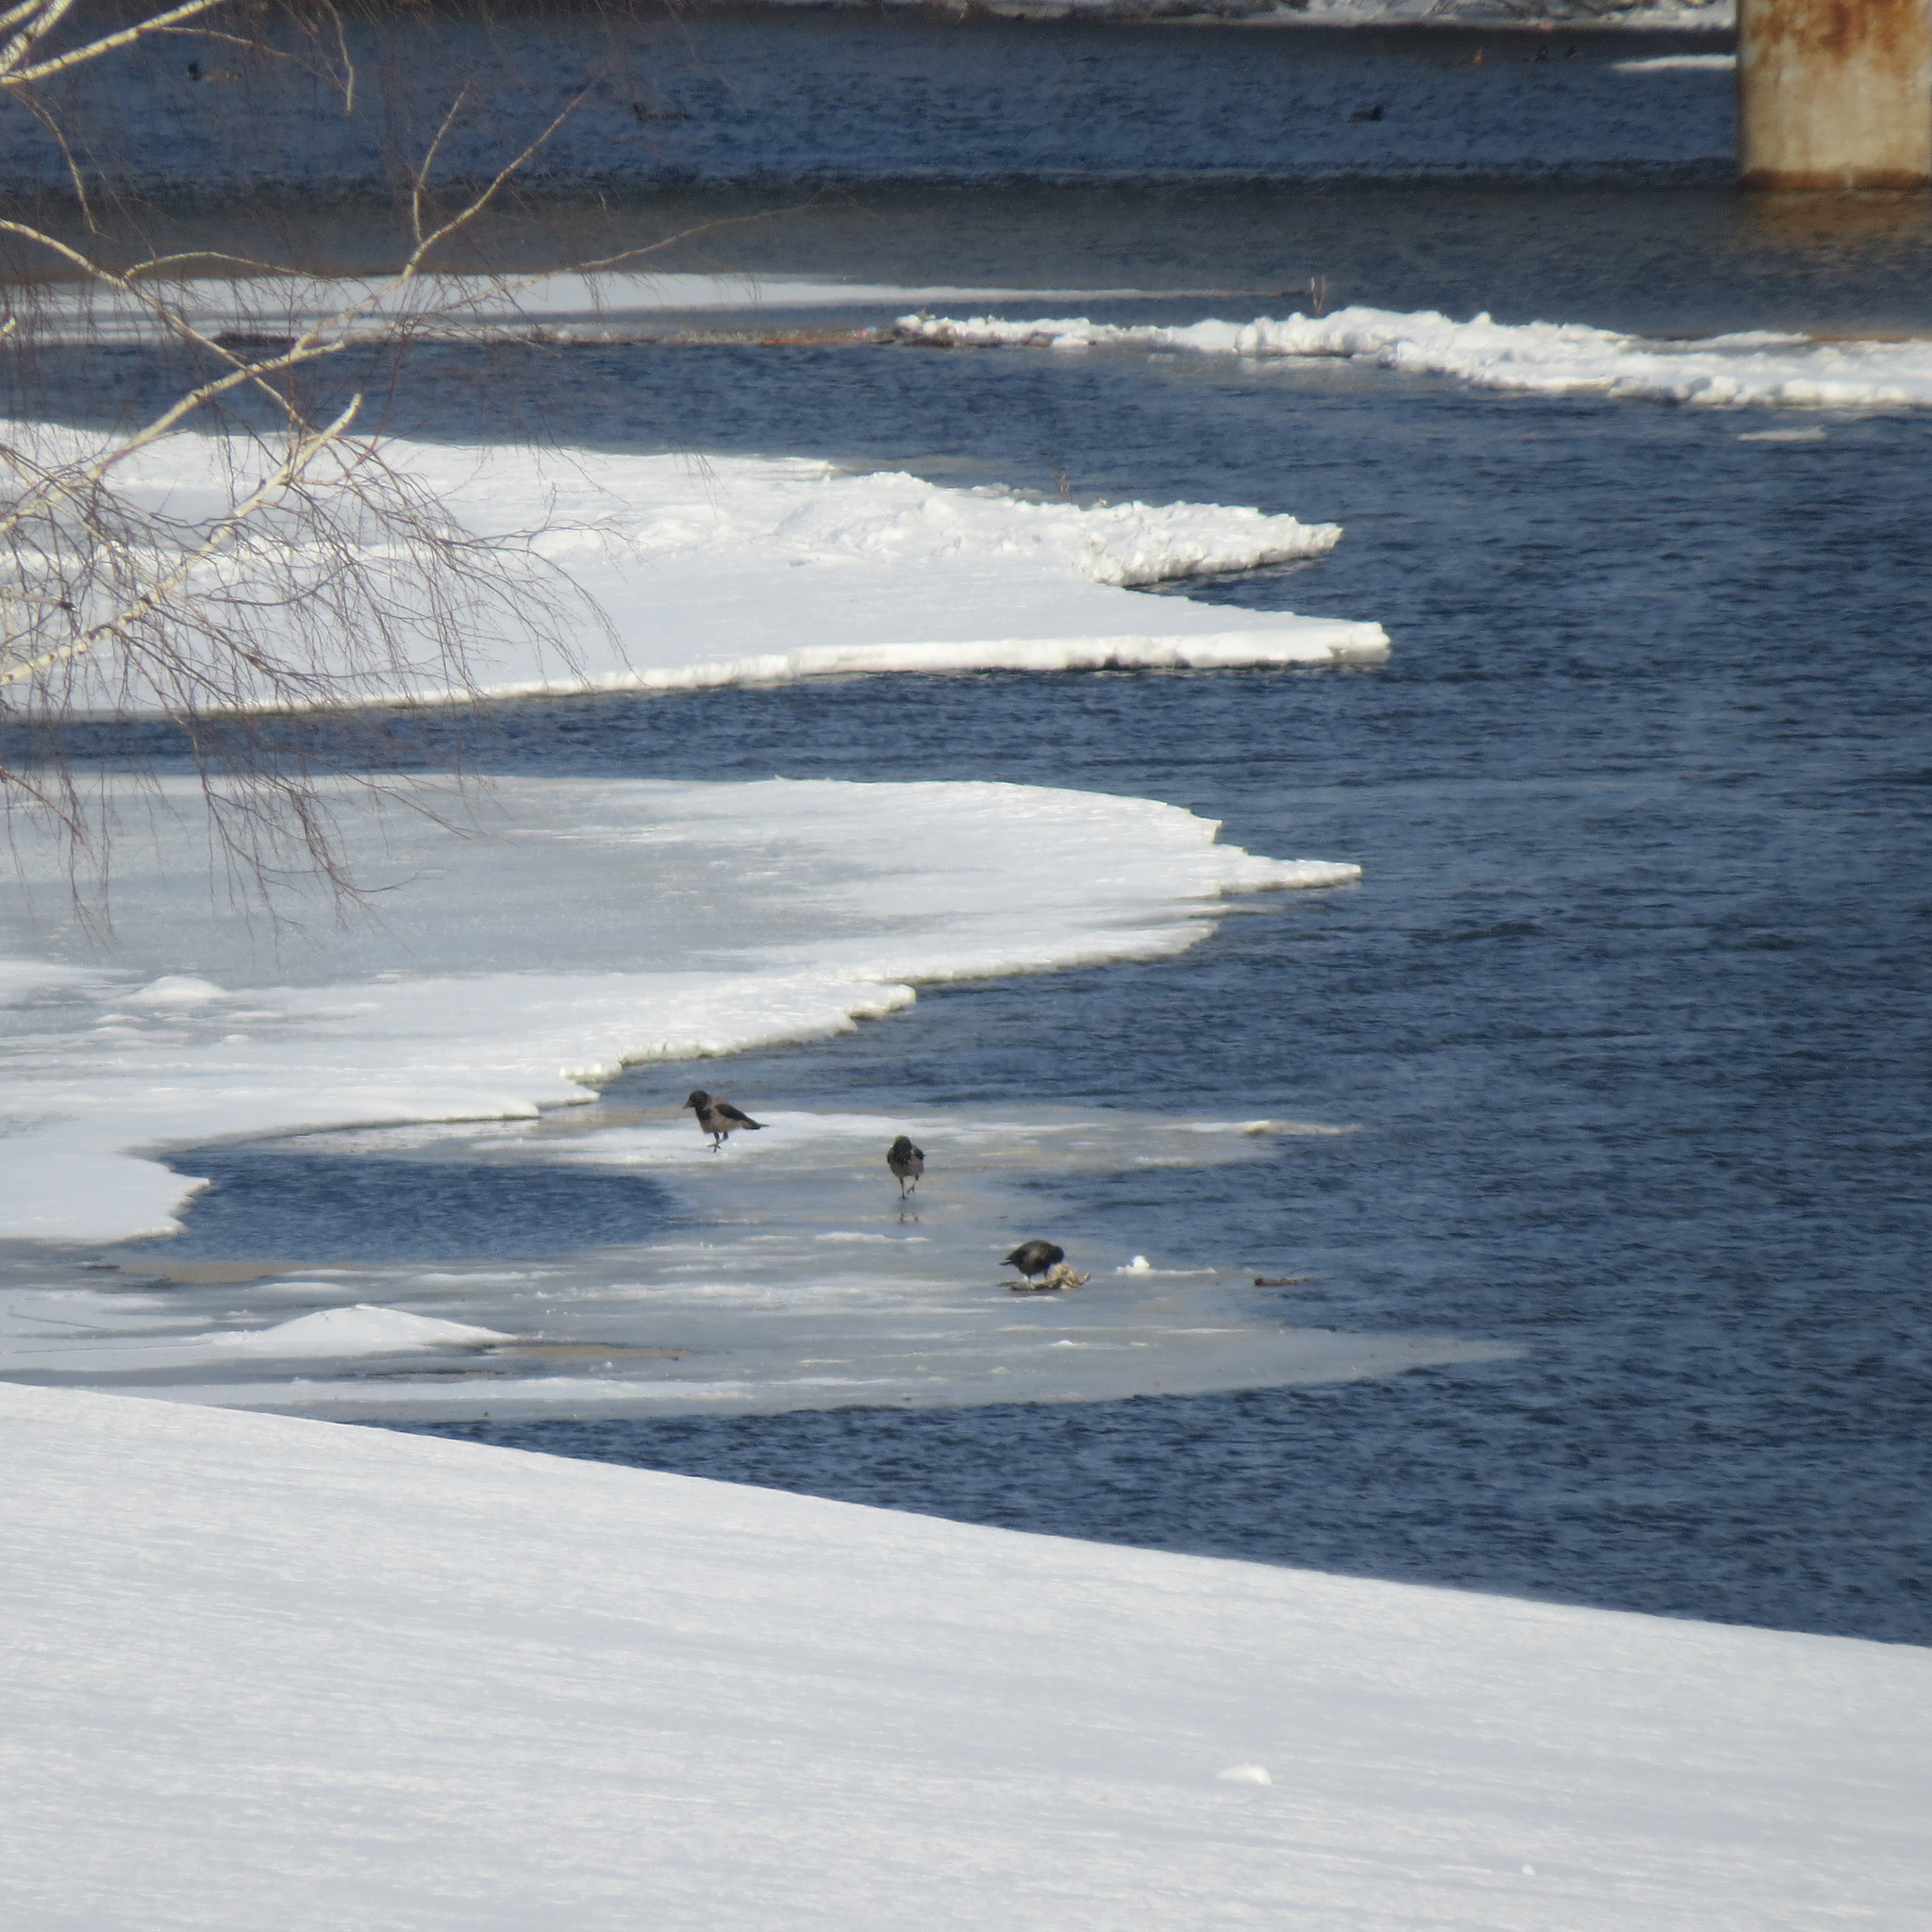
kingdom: Animalia
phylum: Chordata
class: Aves
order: Passeriformes
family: Corvidae
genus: Corvus
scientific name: Corvus cornix
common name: Hooded crow
